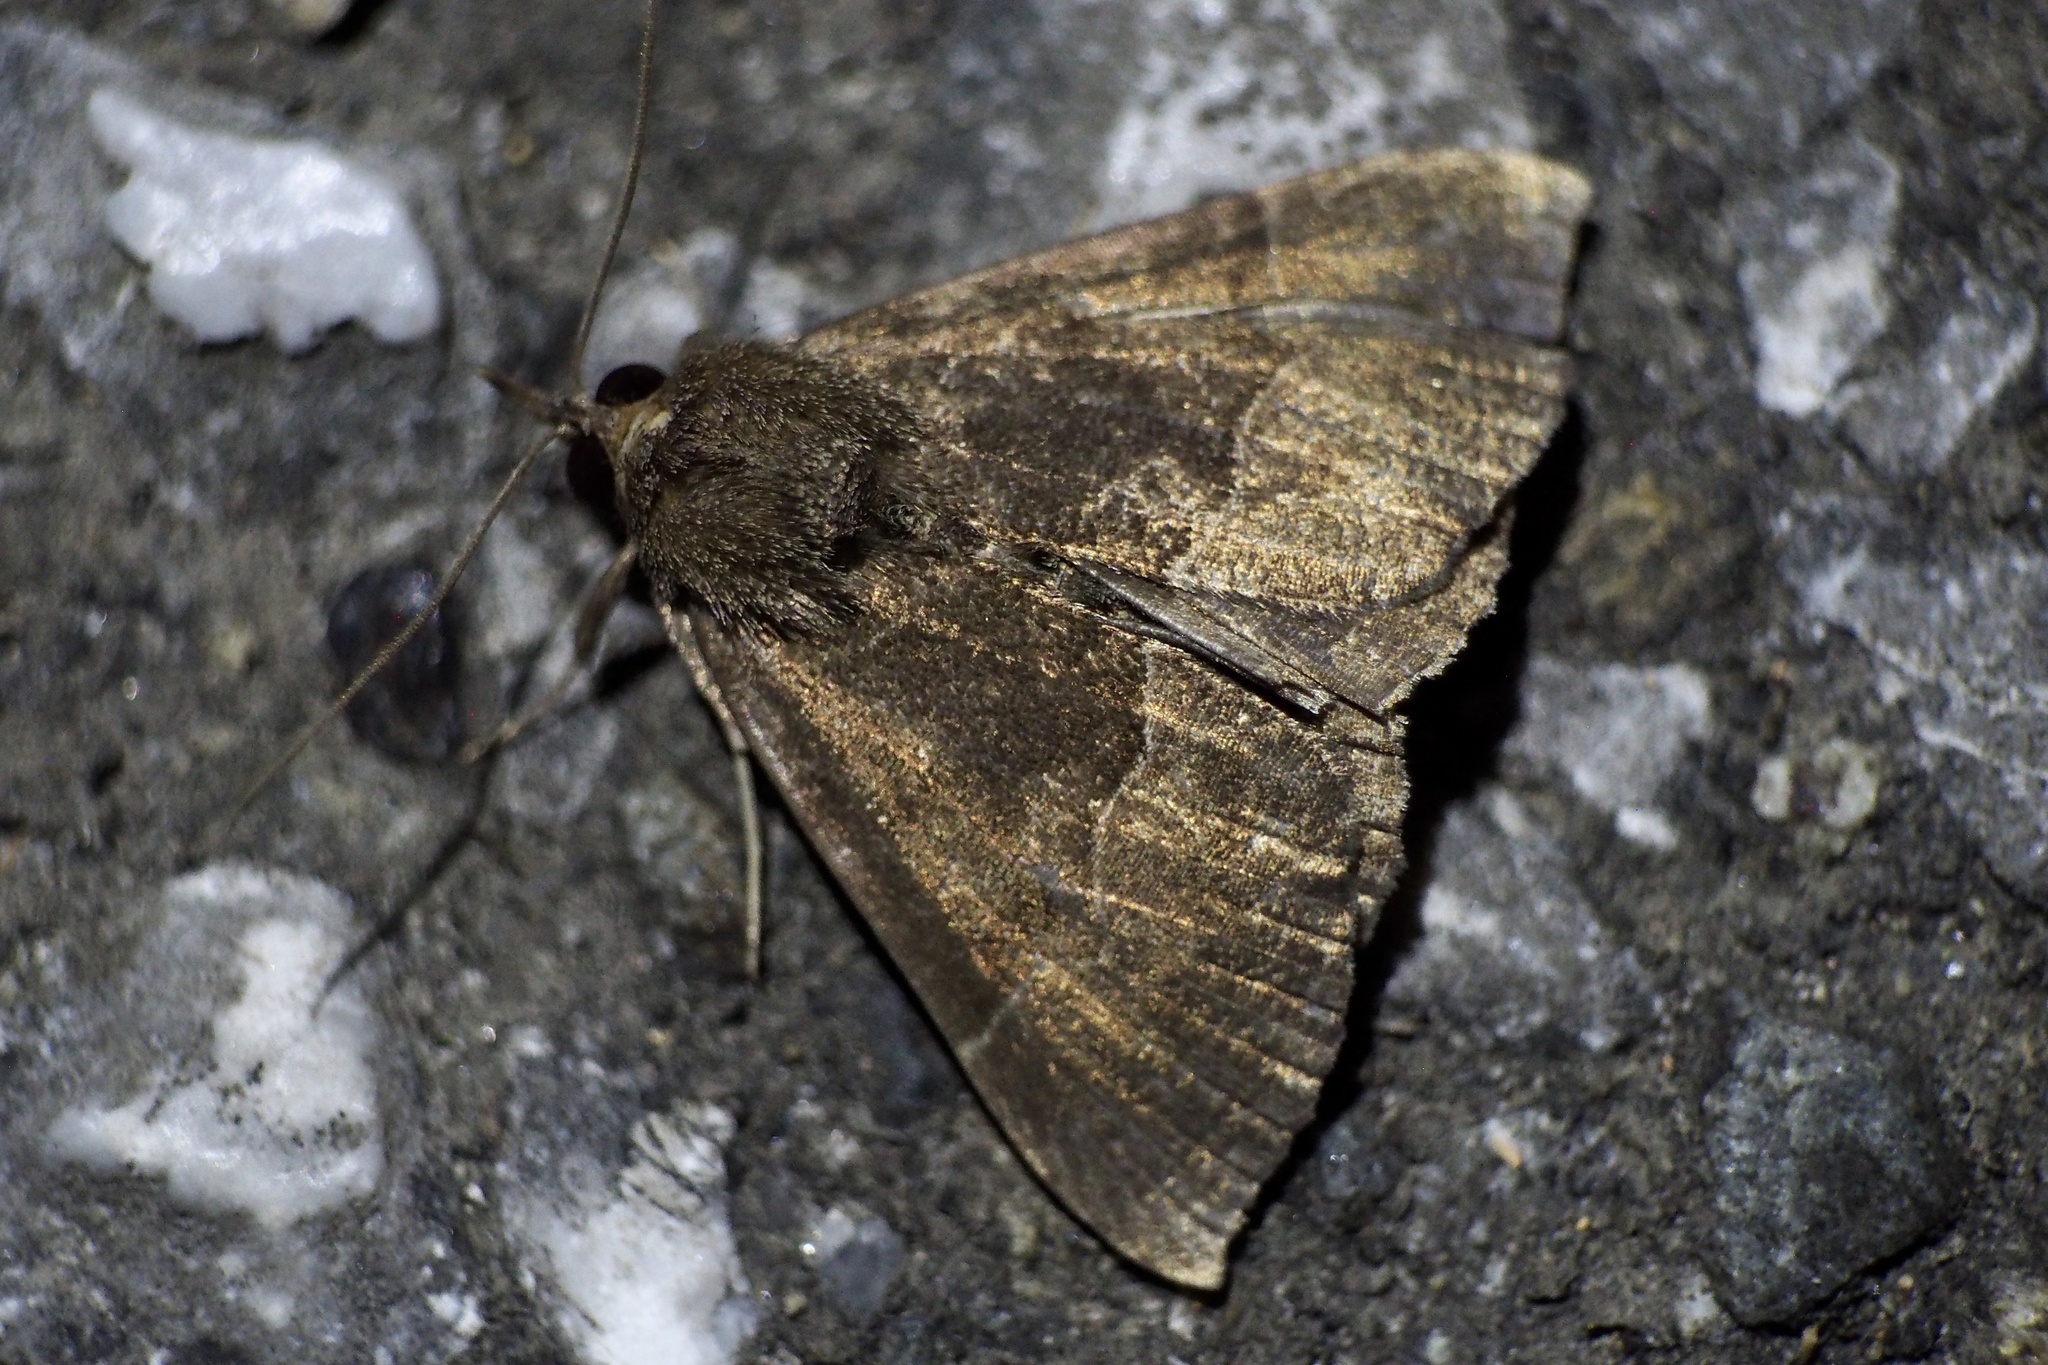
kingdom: Animalia
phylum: Arthropoda
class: Insecta
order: Lepidoptera
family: Erebidae
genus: Hypena
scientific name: Hypena stygiana
